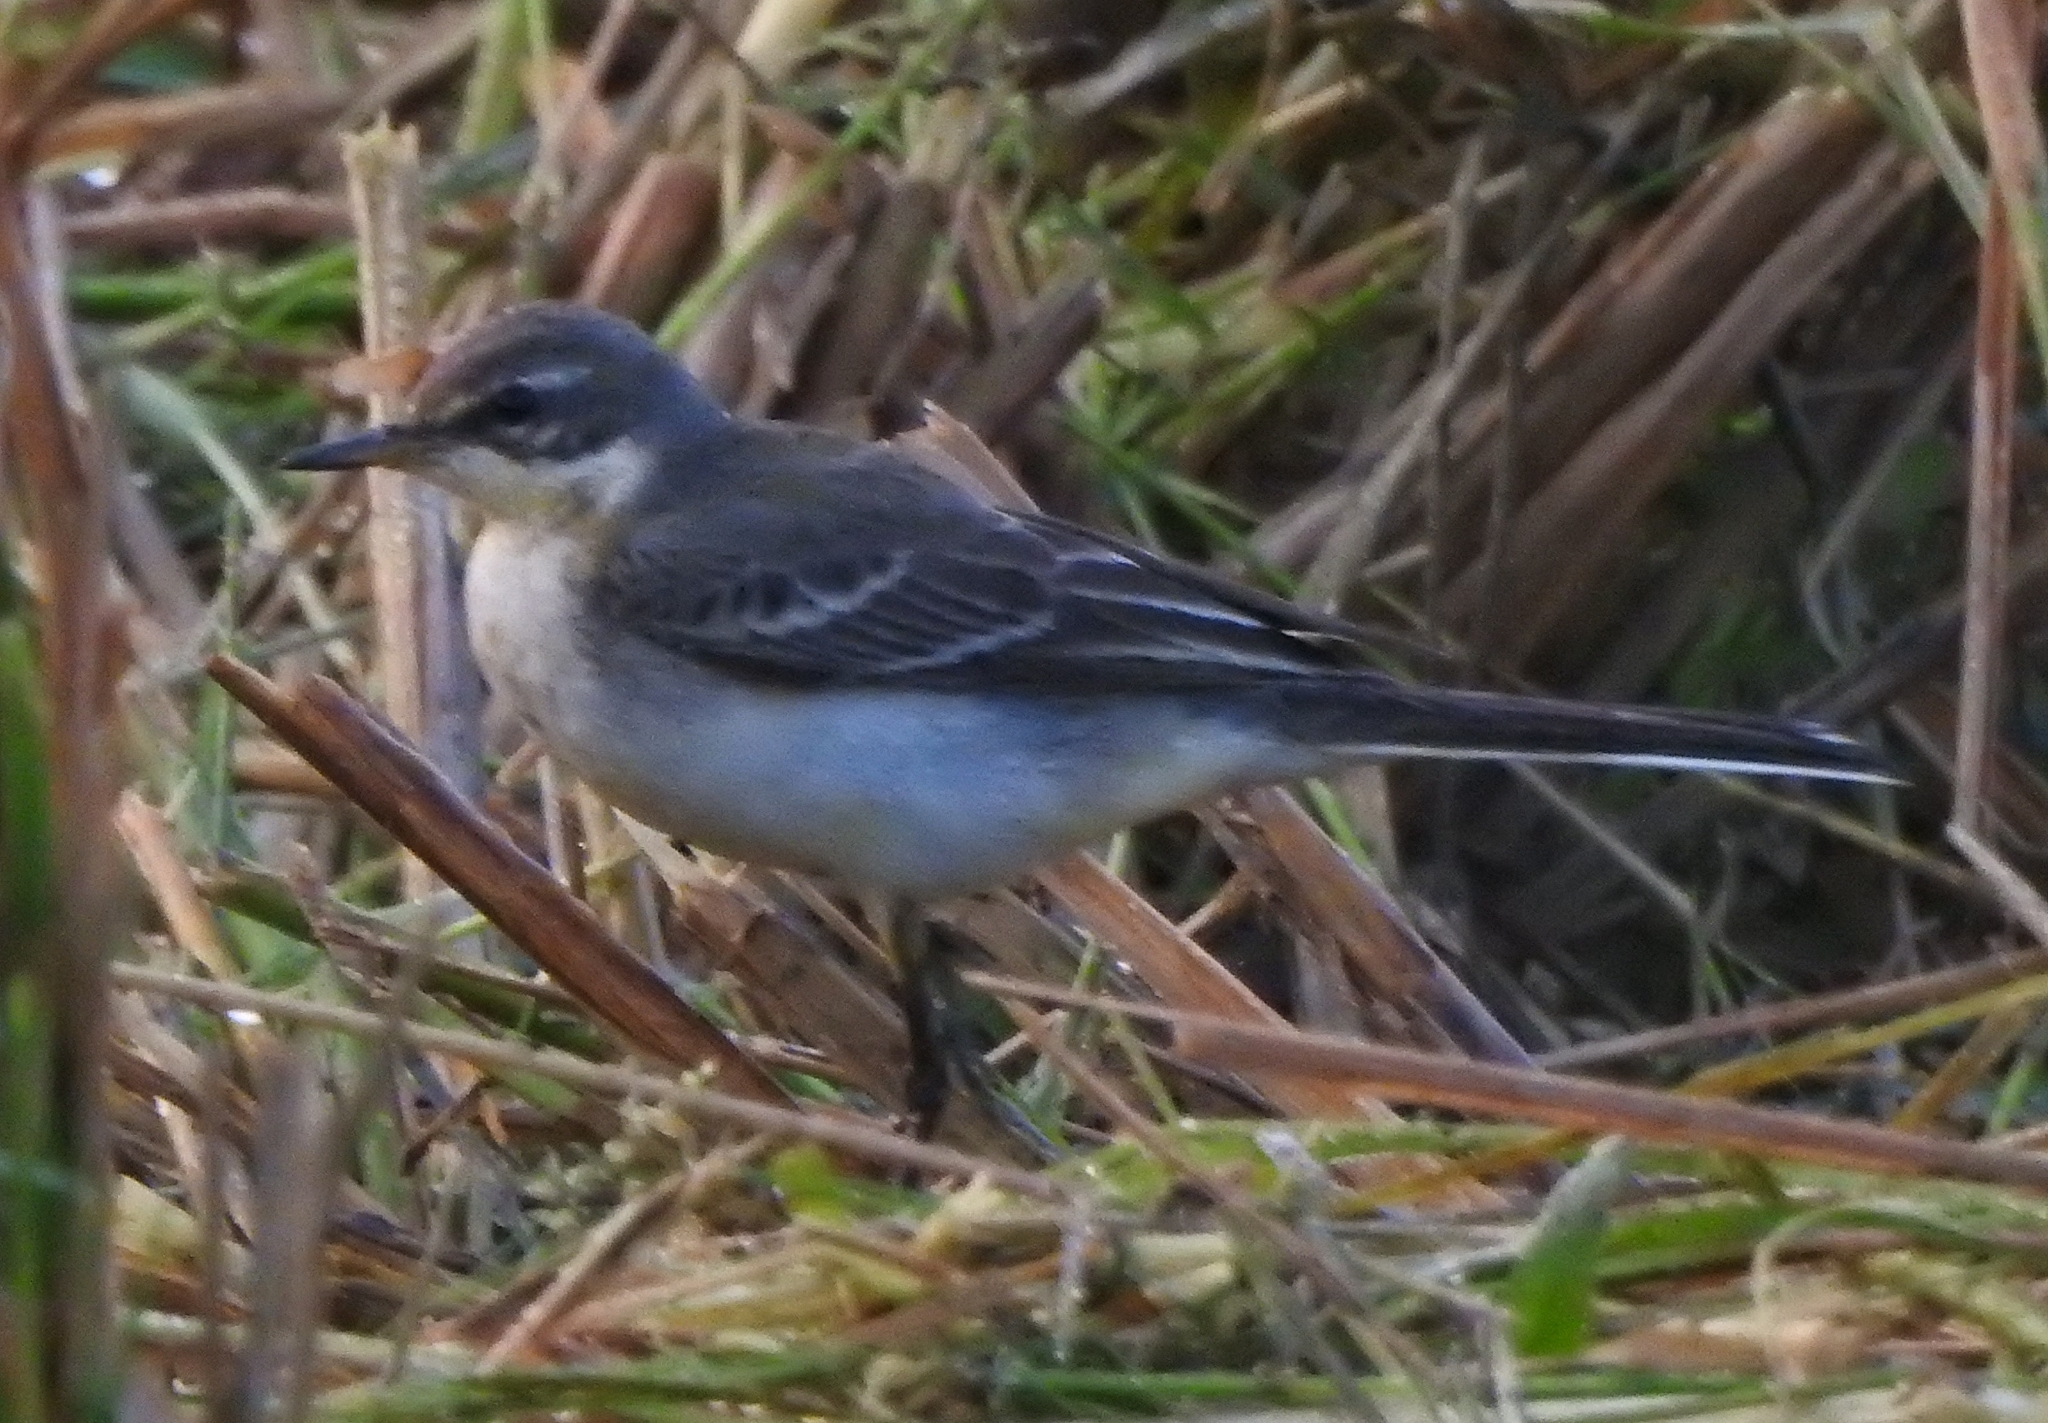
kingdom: Animalia
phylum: Chordata
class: Aves
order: Passeriformes
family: Motacillidae
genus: Motacilla
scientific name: Motacilla tschutschensis
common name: Eastern yellow wagtail
